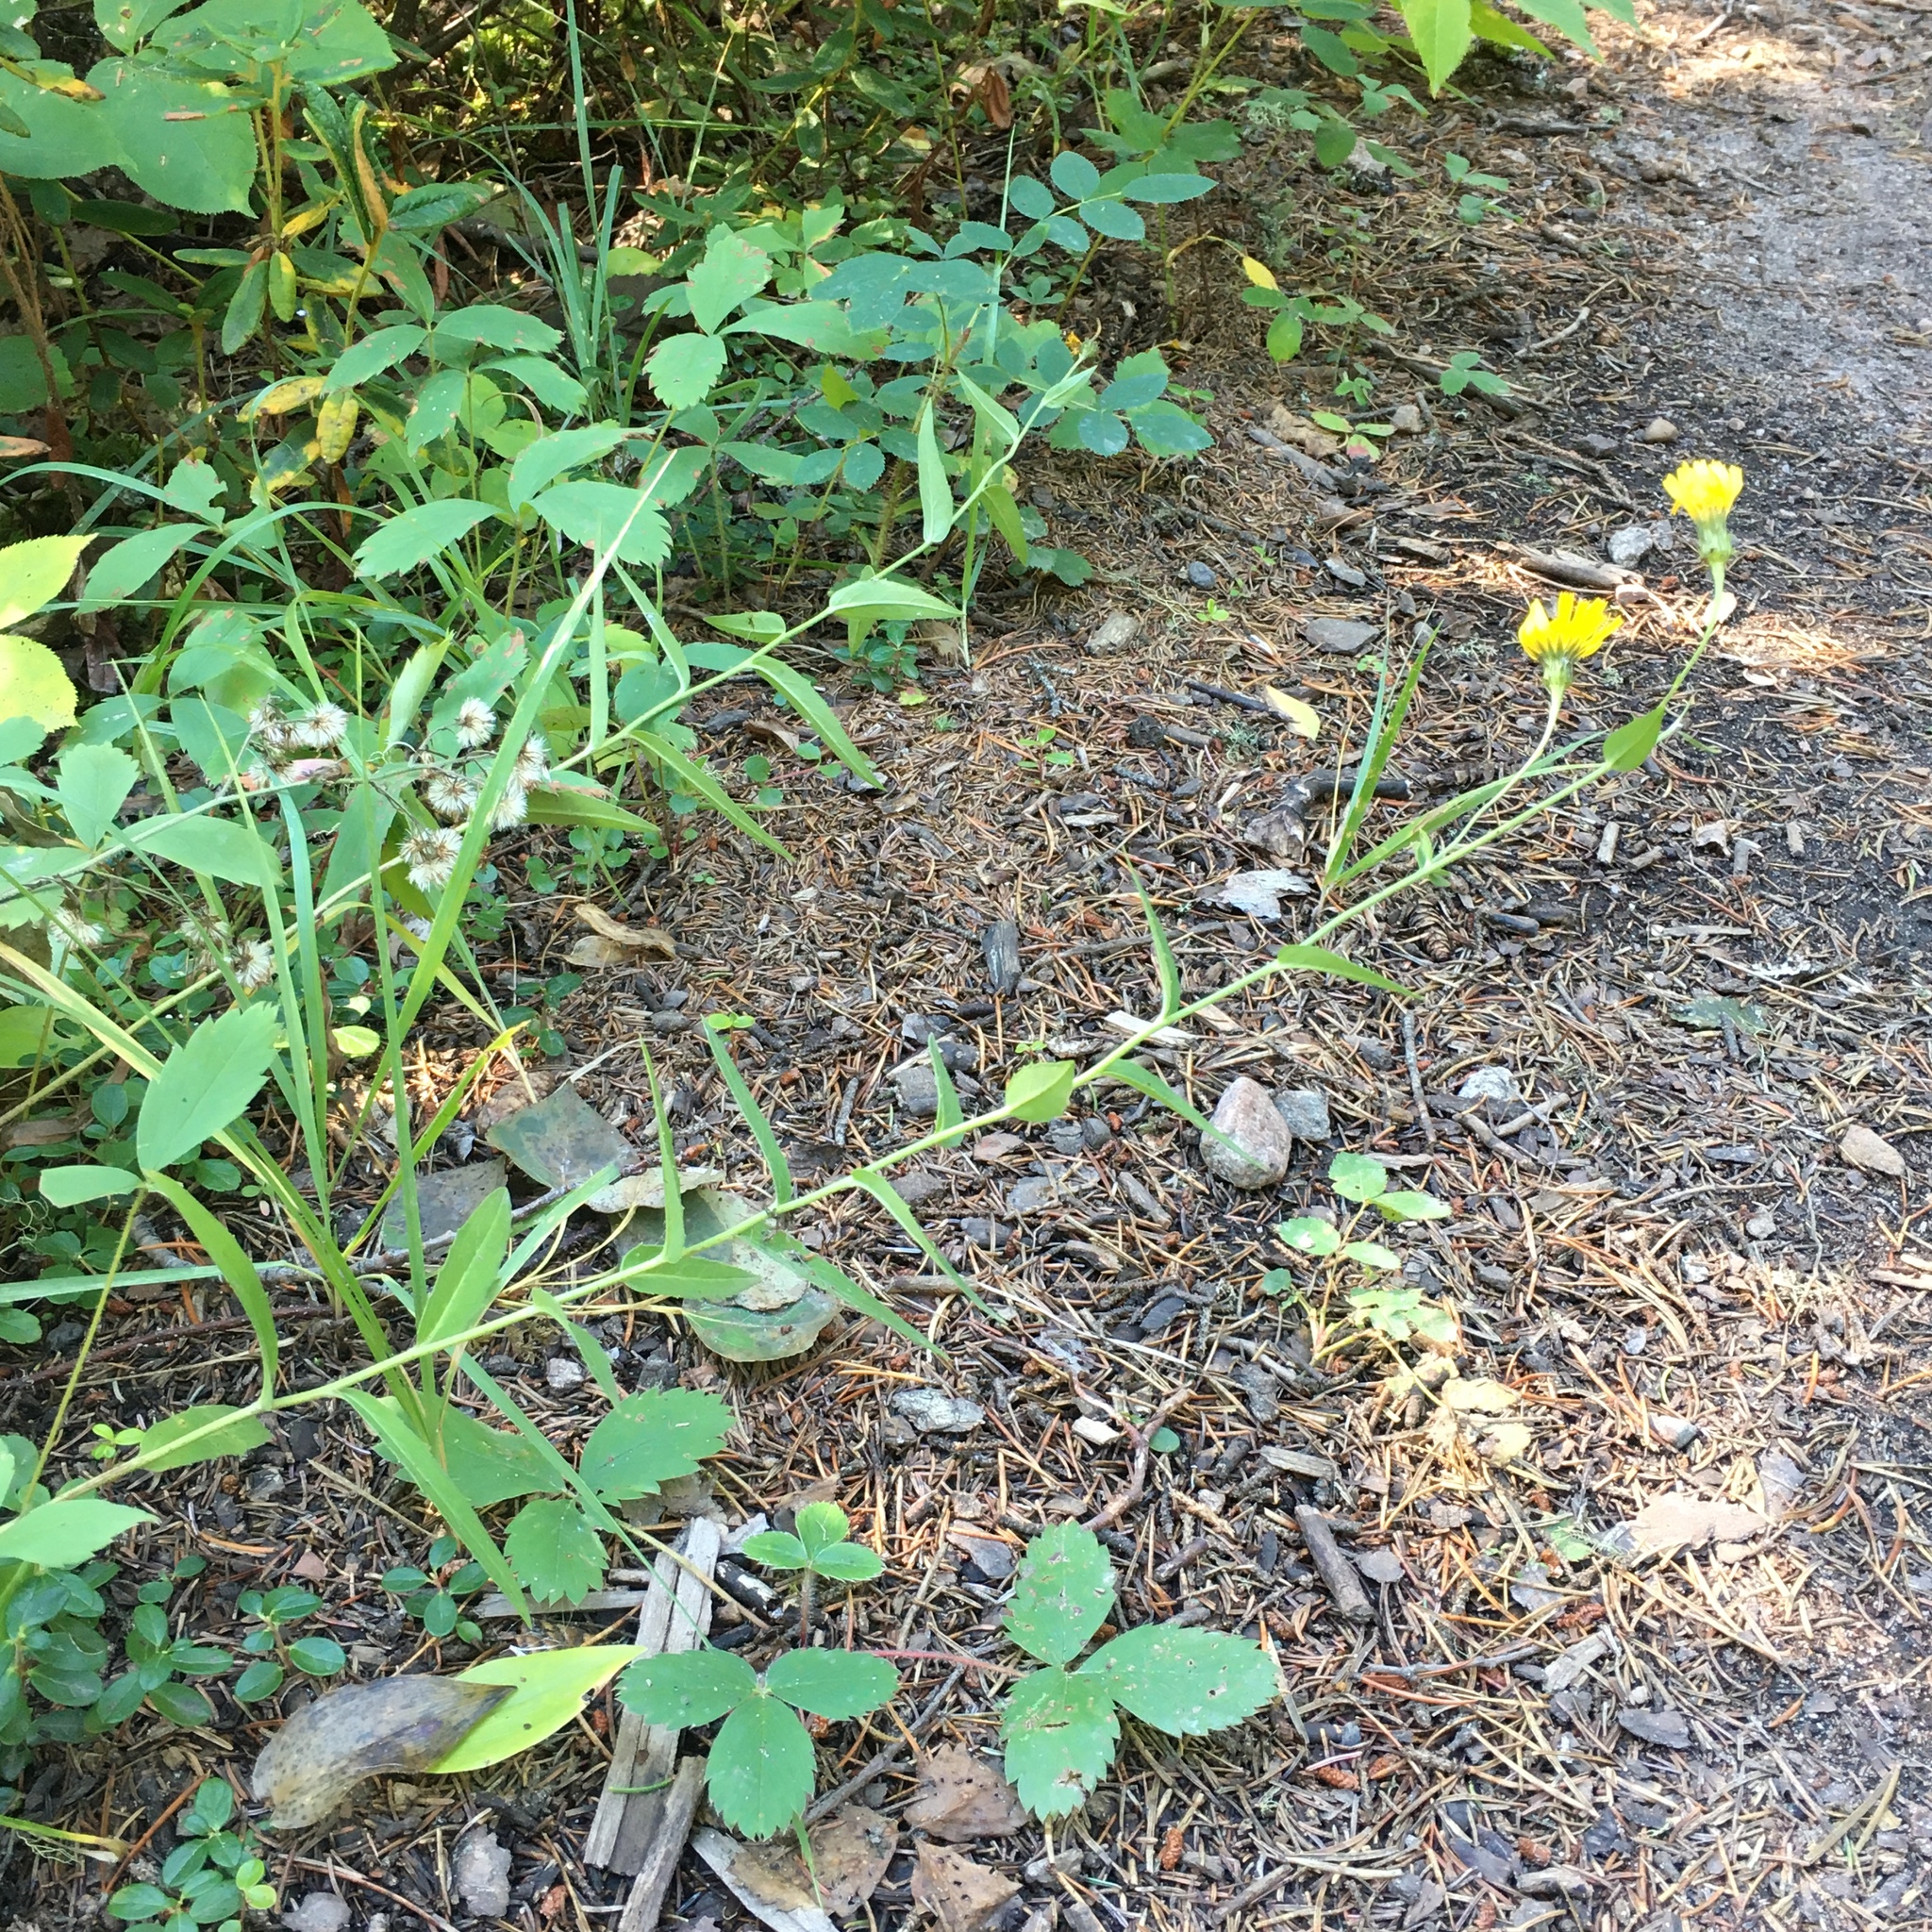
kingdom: Plantae
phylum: Tracheophyta
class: Magnoliopsida
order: Asterales
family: Asteraceae
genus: Hieracium
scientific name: Hieracium umbellatum
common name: Northern hawkweed
